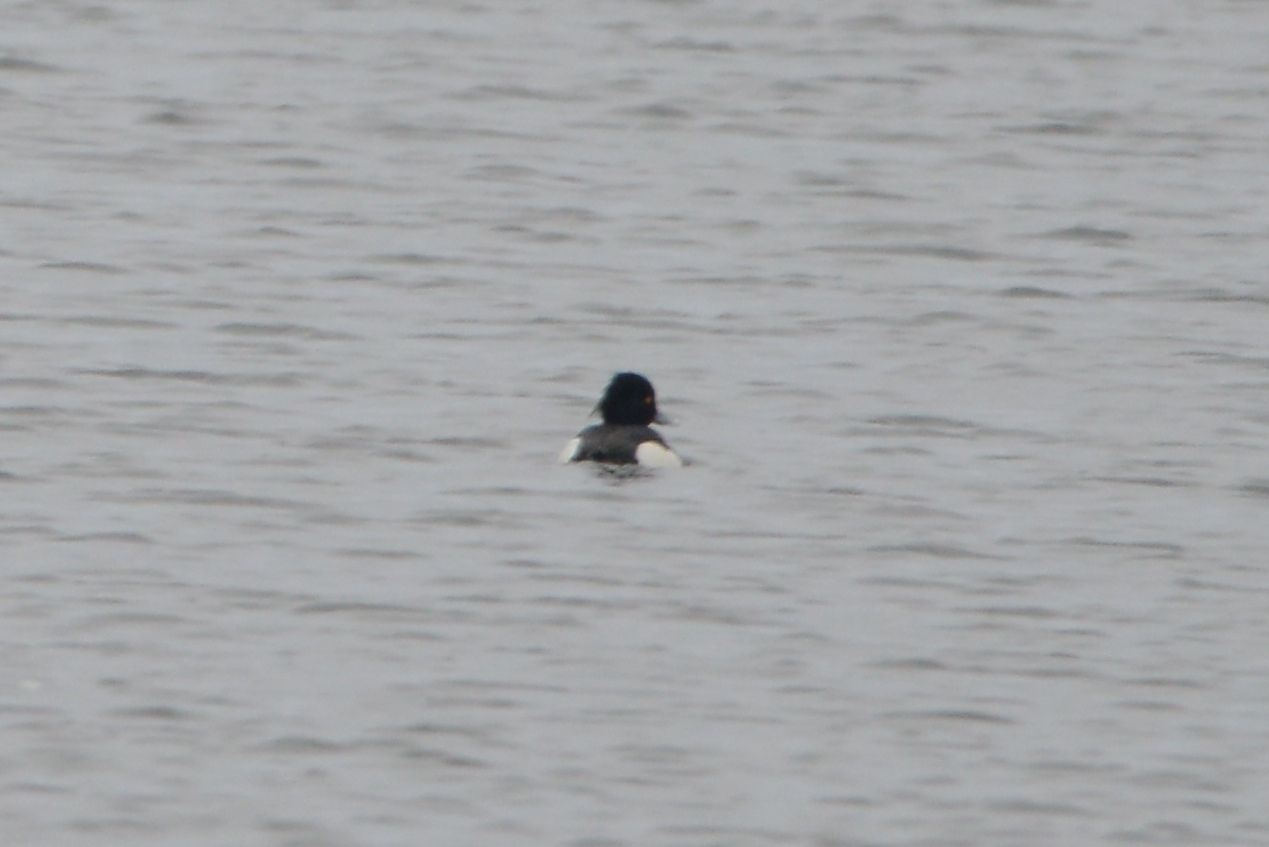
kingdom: Animalia
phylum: Chordata
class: Aves
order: Anseriformes
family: Anatidae
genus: Aythya
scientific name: Aythya fuligula
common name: Tufted duck
